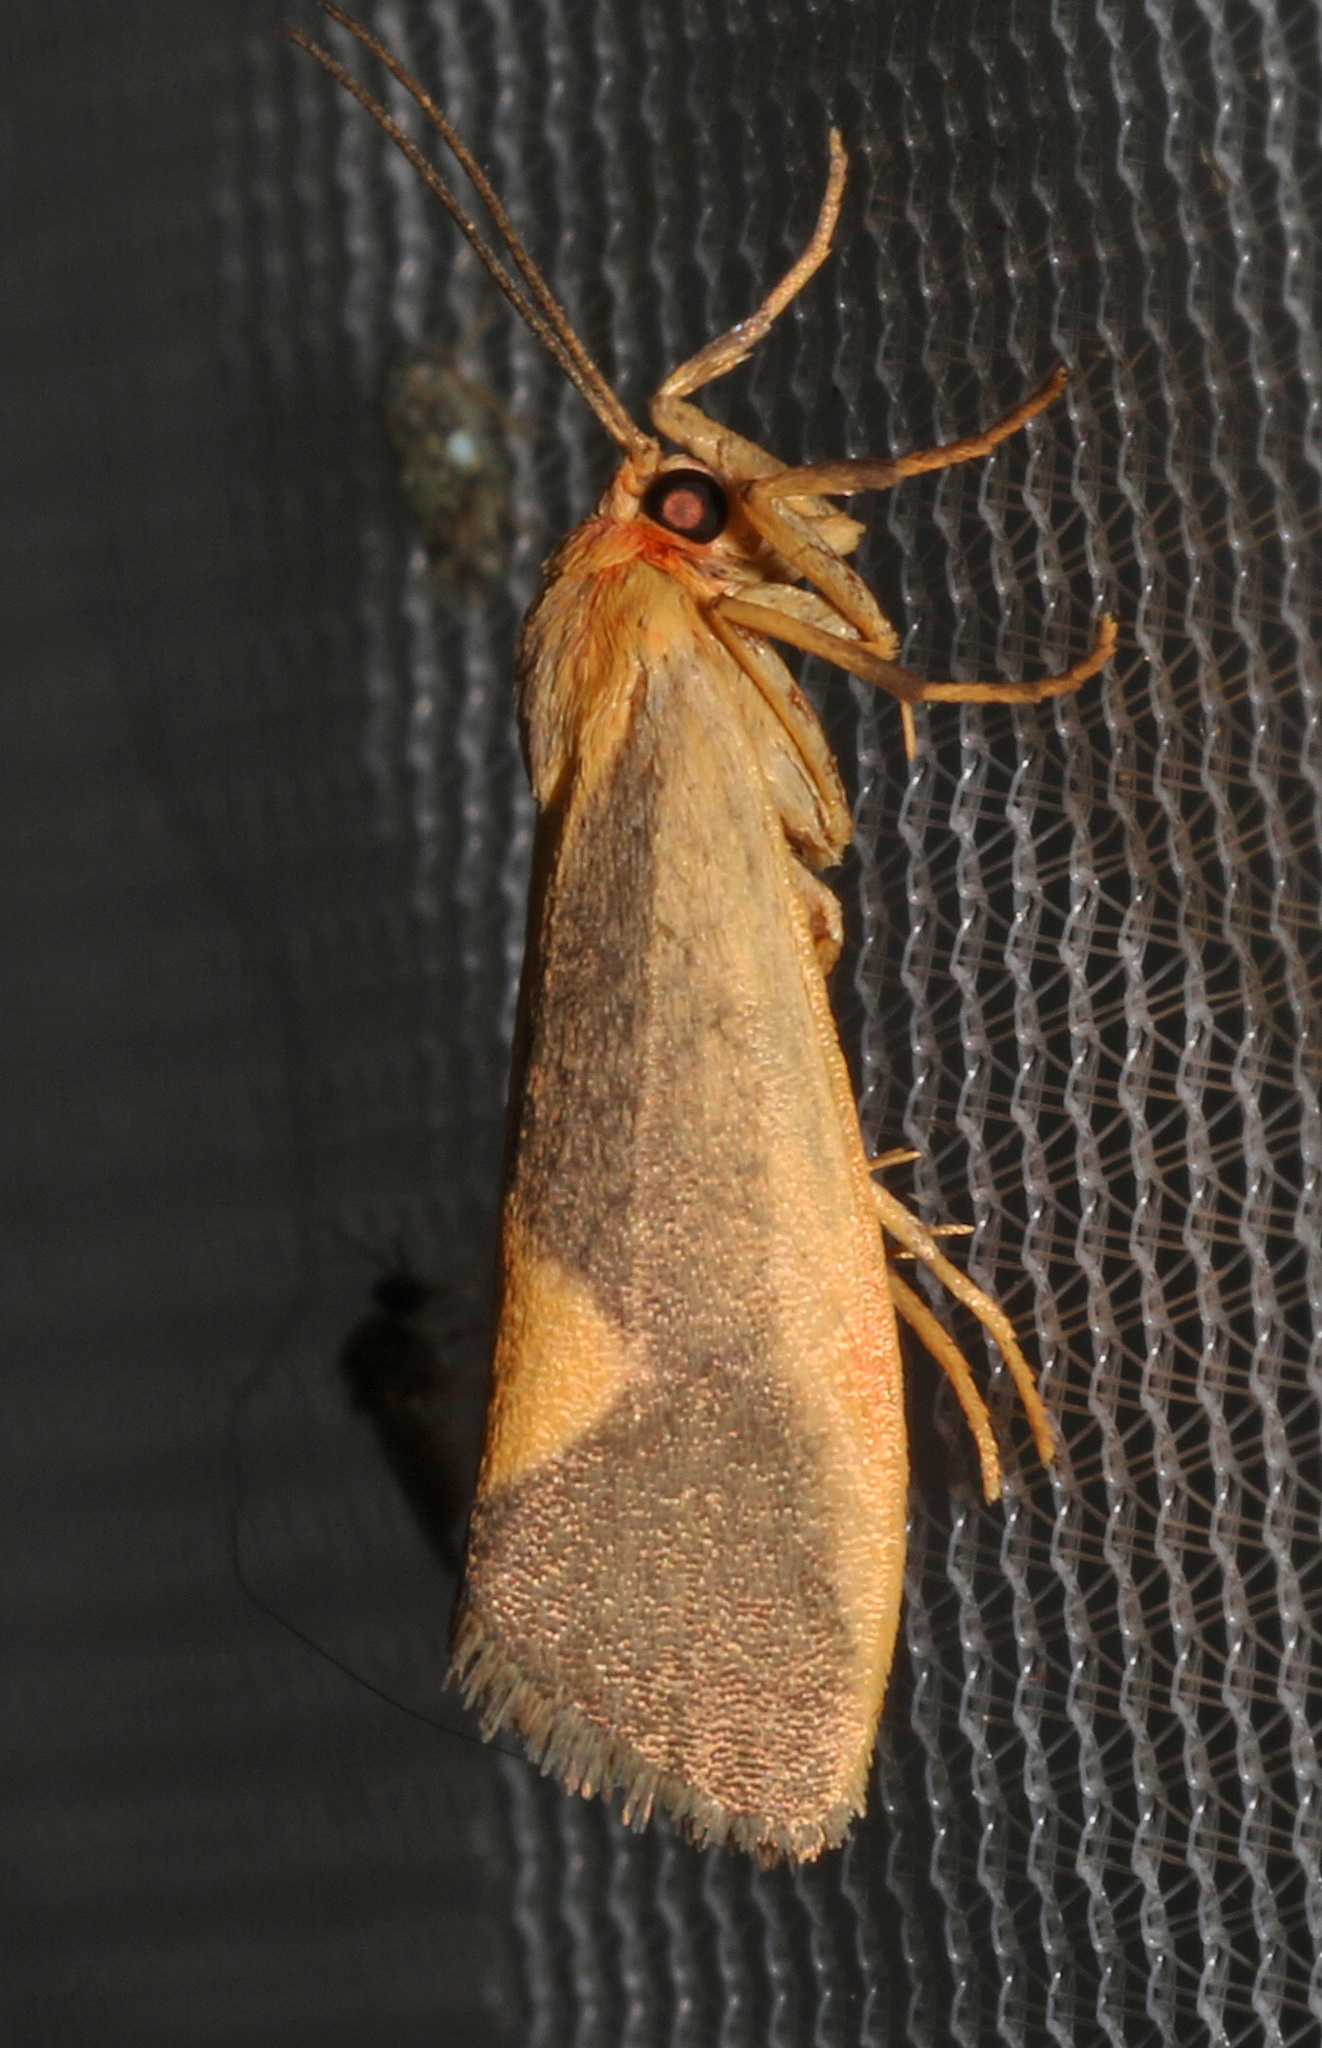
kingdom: Animalia
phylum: Arthropoda
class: Insecta
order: Lepidoptera
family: Erebidae
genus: Cisthene
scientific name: Cisthene plumbea
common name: Lead colored lichen moth
